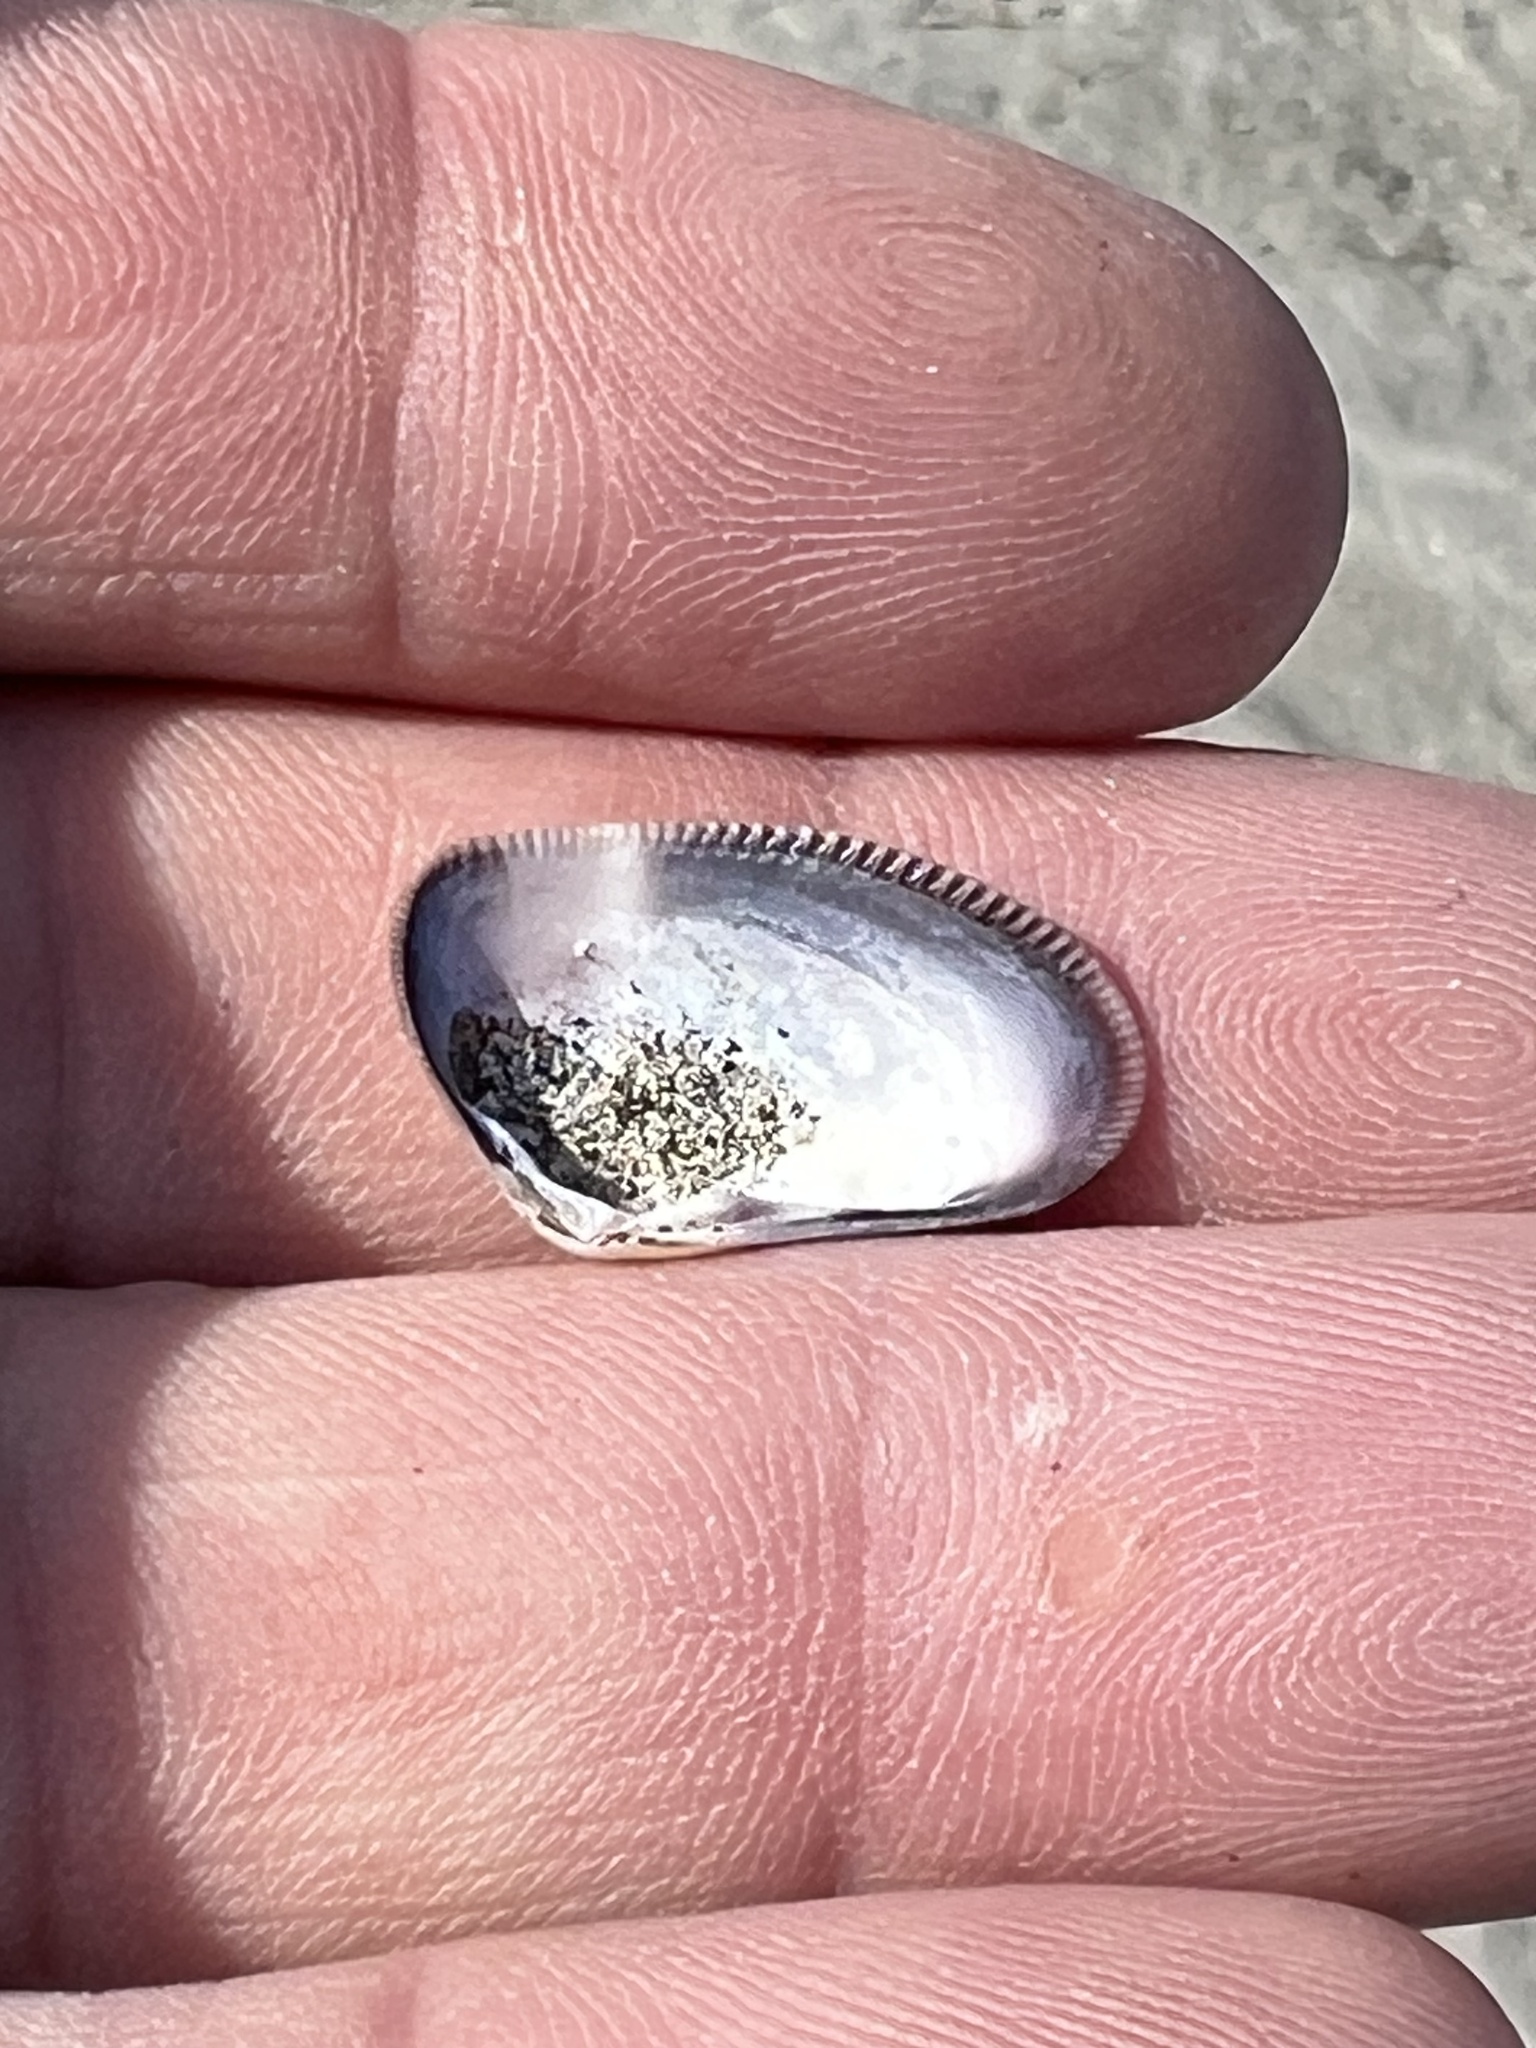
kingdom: Animalia
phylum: Mollusca
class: Bivalvia
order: Cardiida
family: Donacidae
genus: Donax
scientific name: Donax gouldii
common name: Gould beanclam
